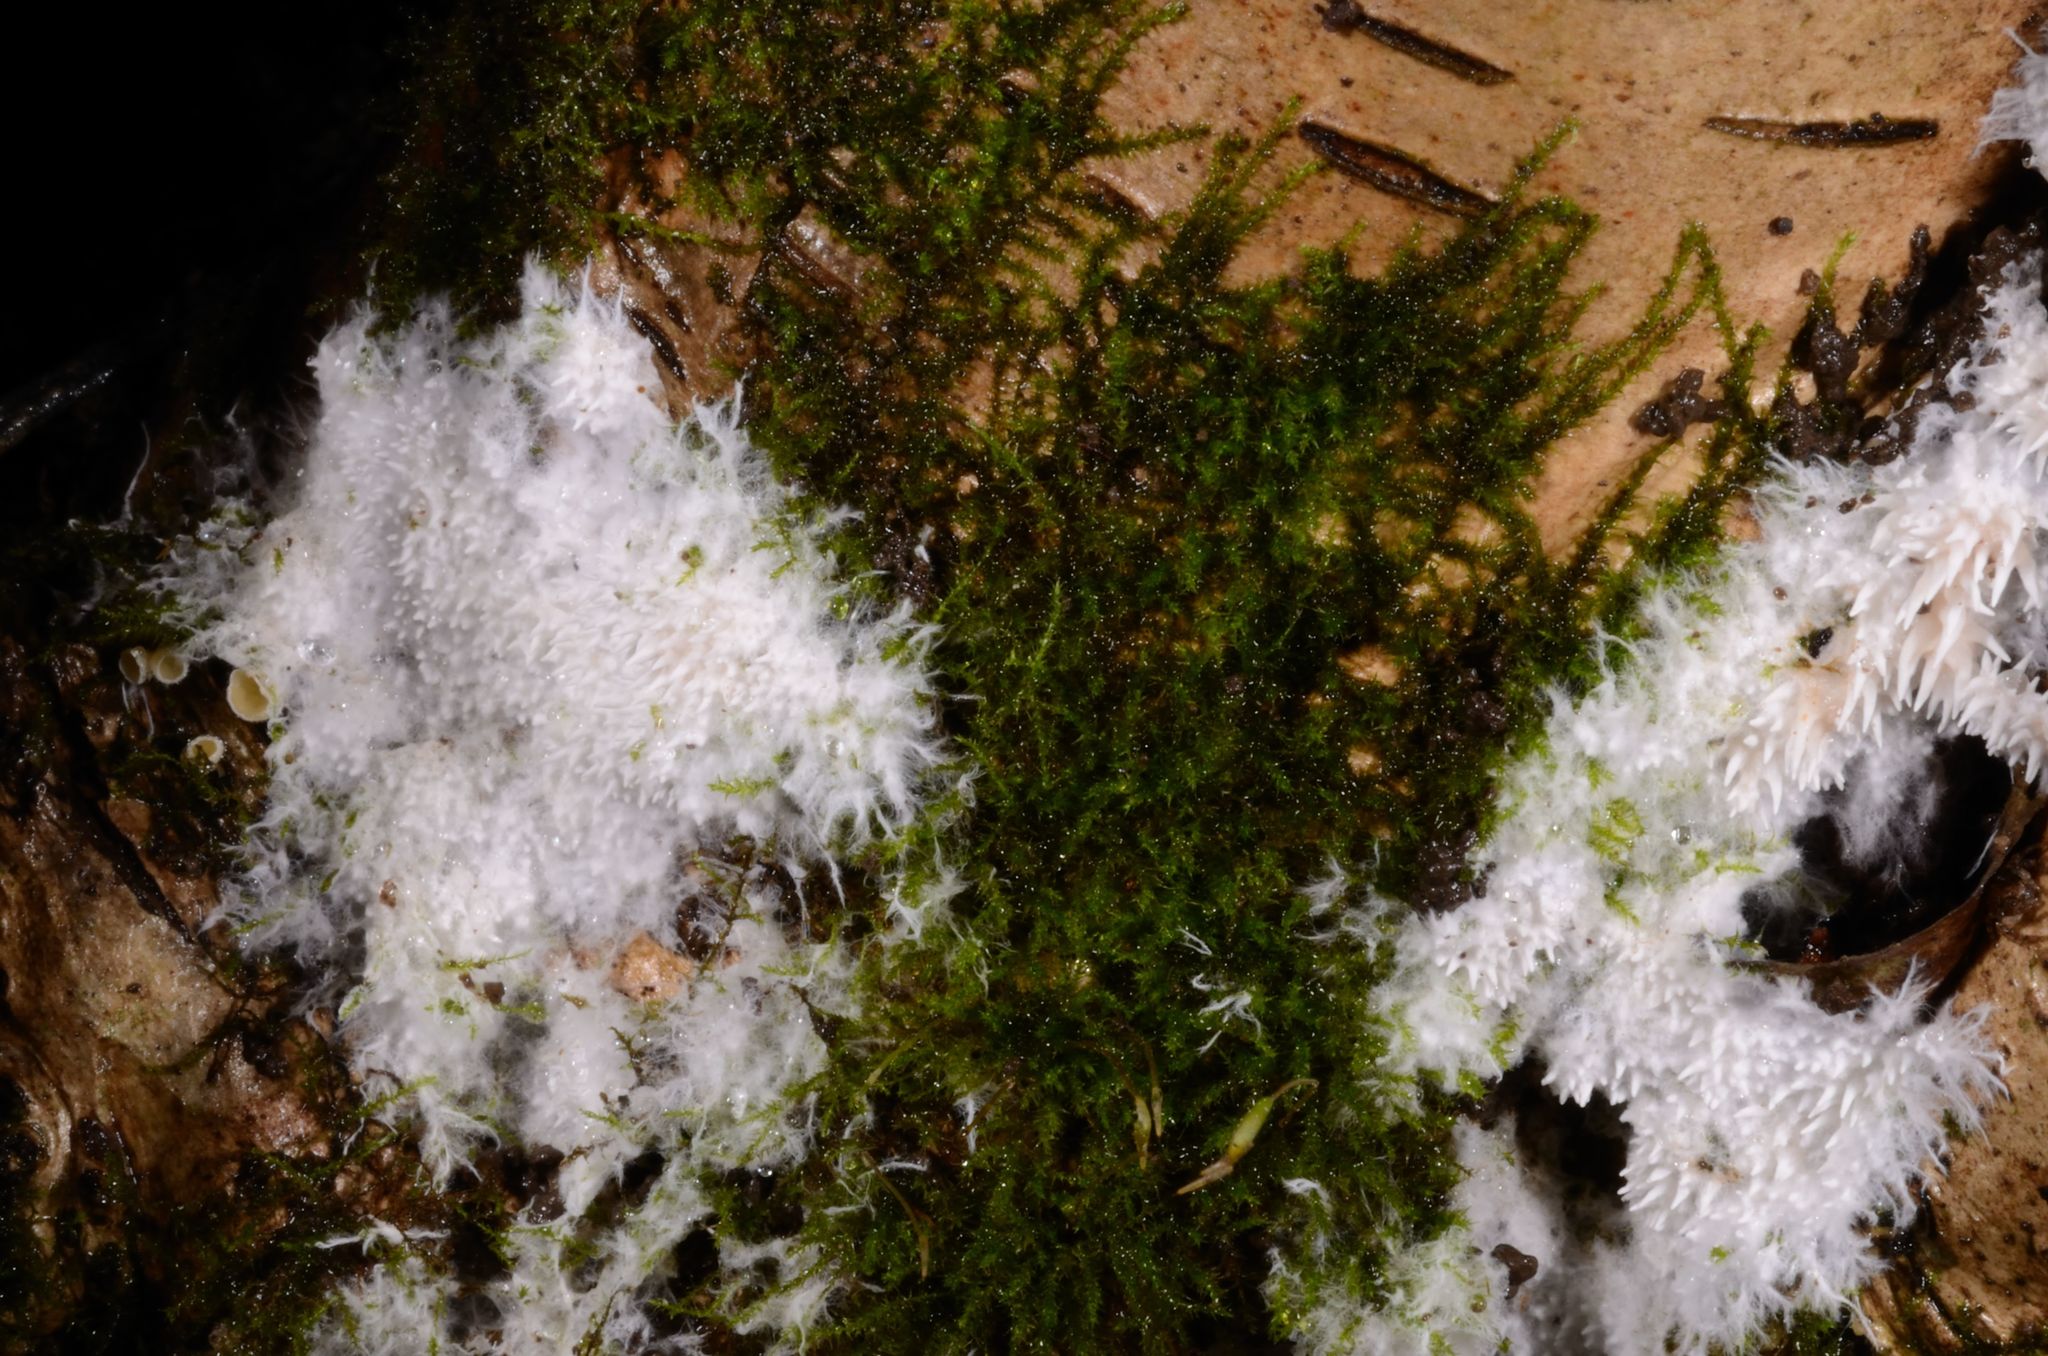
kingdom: Fungi
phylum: Basidiomycota
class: Agaricomycetes
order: Gomphales
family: Lentariaceae
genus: Hydnocristella
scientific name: Hydnocristella himantia
